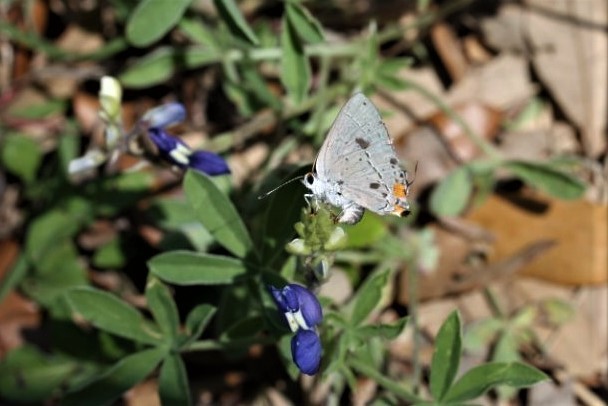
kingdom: Animalia
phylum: Arthropoda
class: Insecta
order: Lepidoptera
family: Lycaenidae
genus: Strymon
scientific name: Strymon melinus
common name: Gray hairstreak
